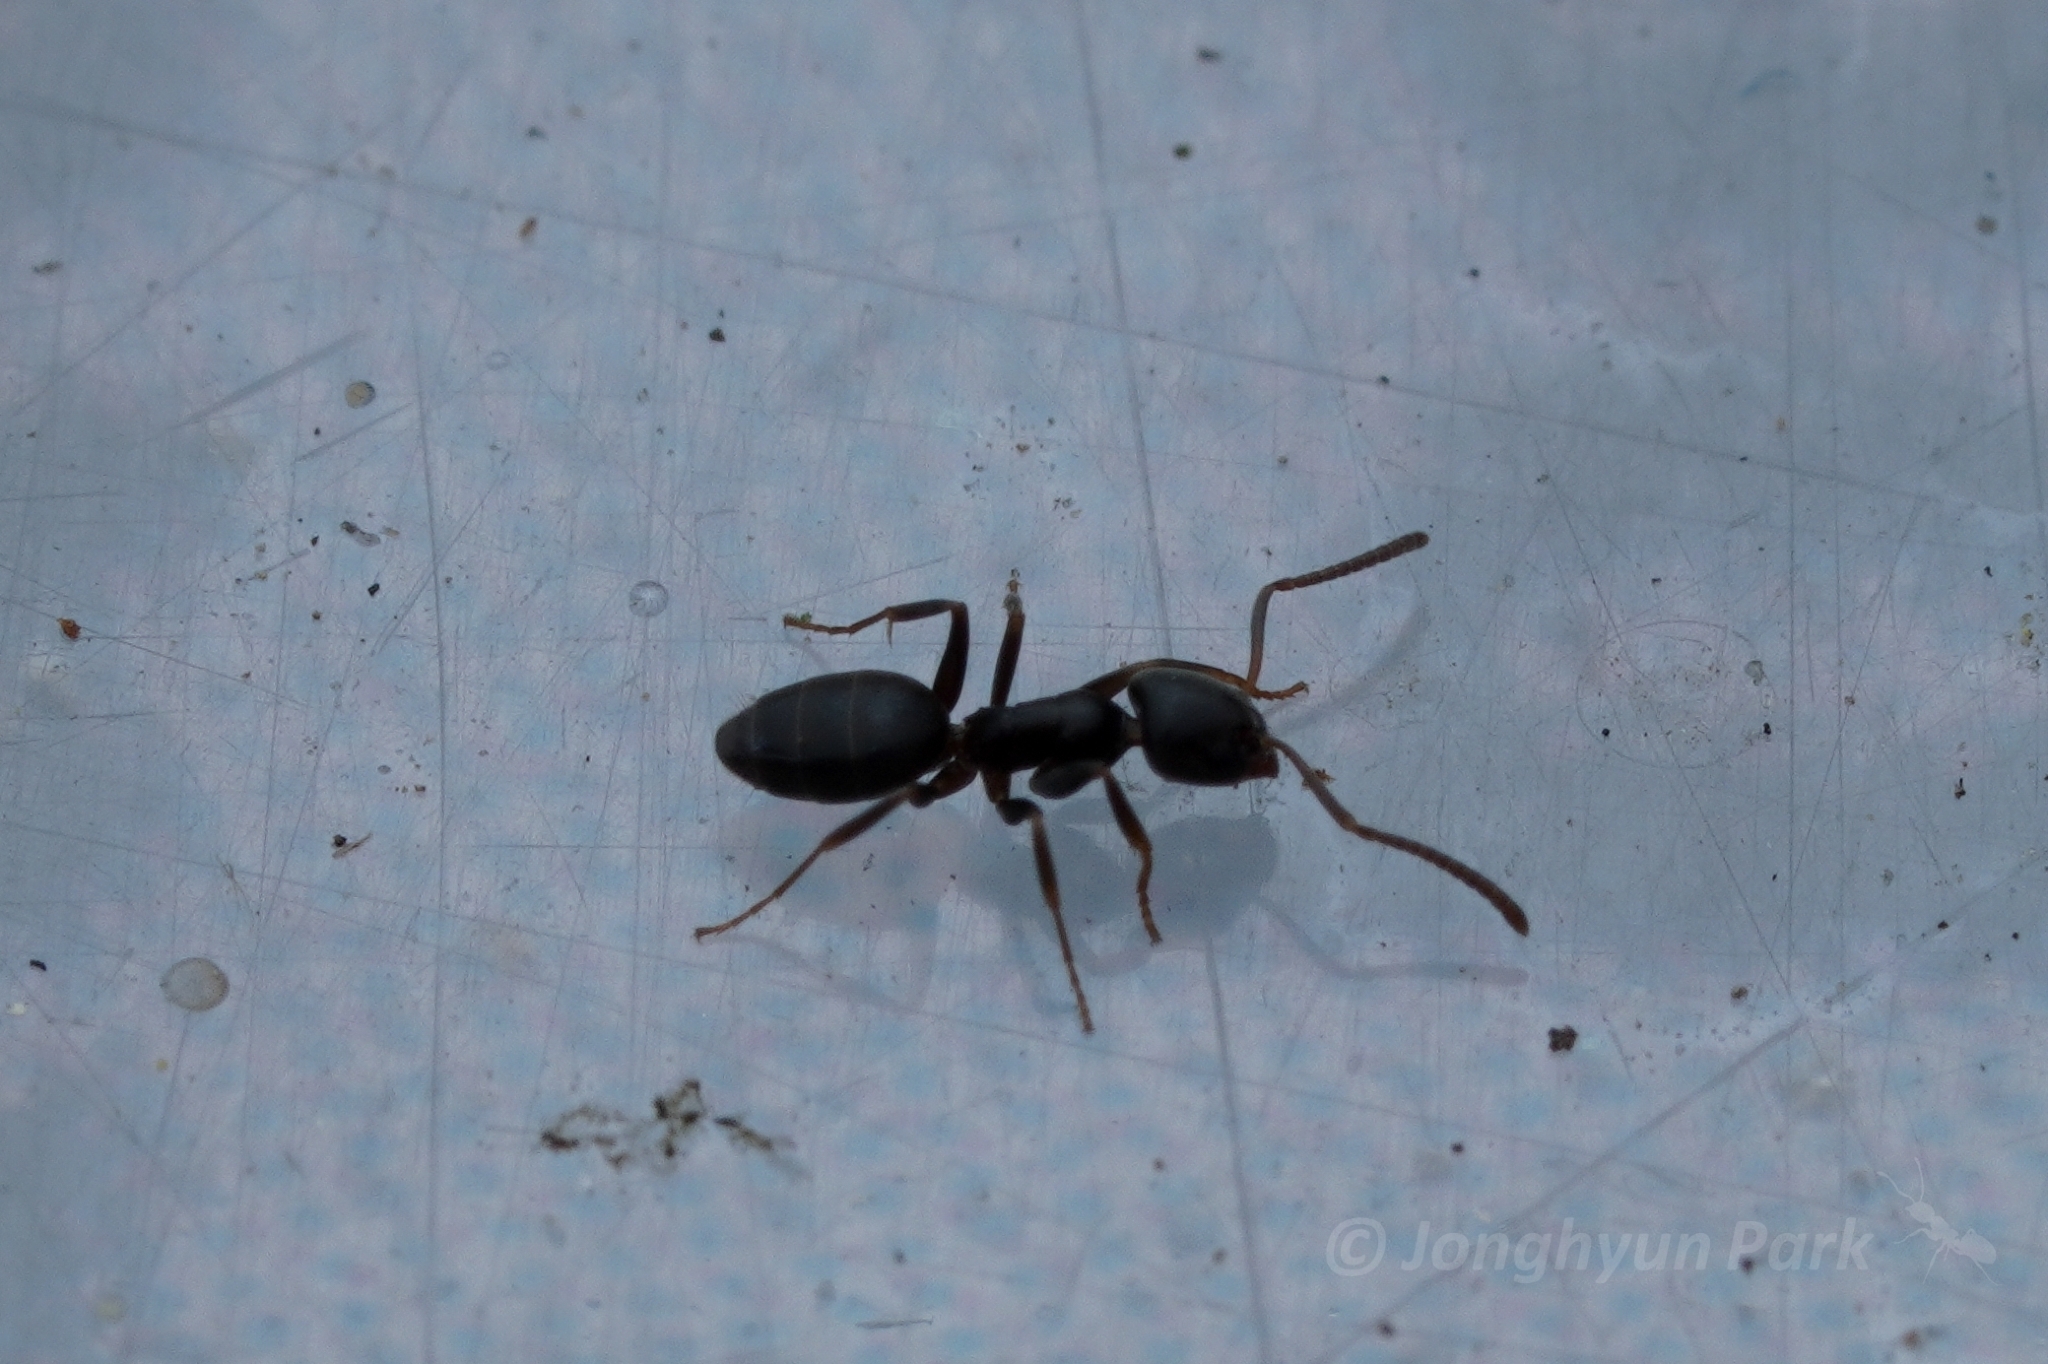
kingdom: Animalia
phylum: Arthropoda
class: Insecta
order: Hymenoptera
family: Formicidae
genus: Tapinoma
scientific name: Tapinoma sessile
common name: Odorous house ant
